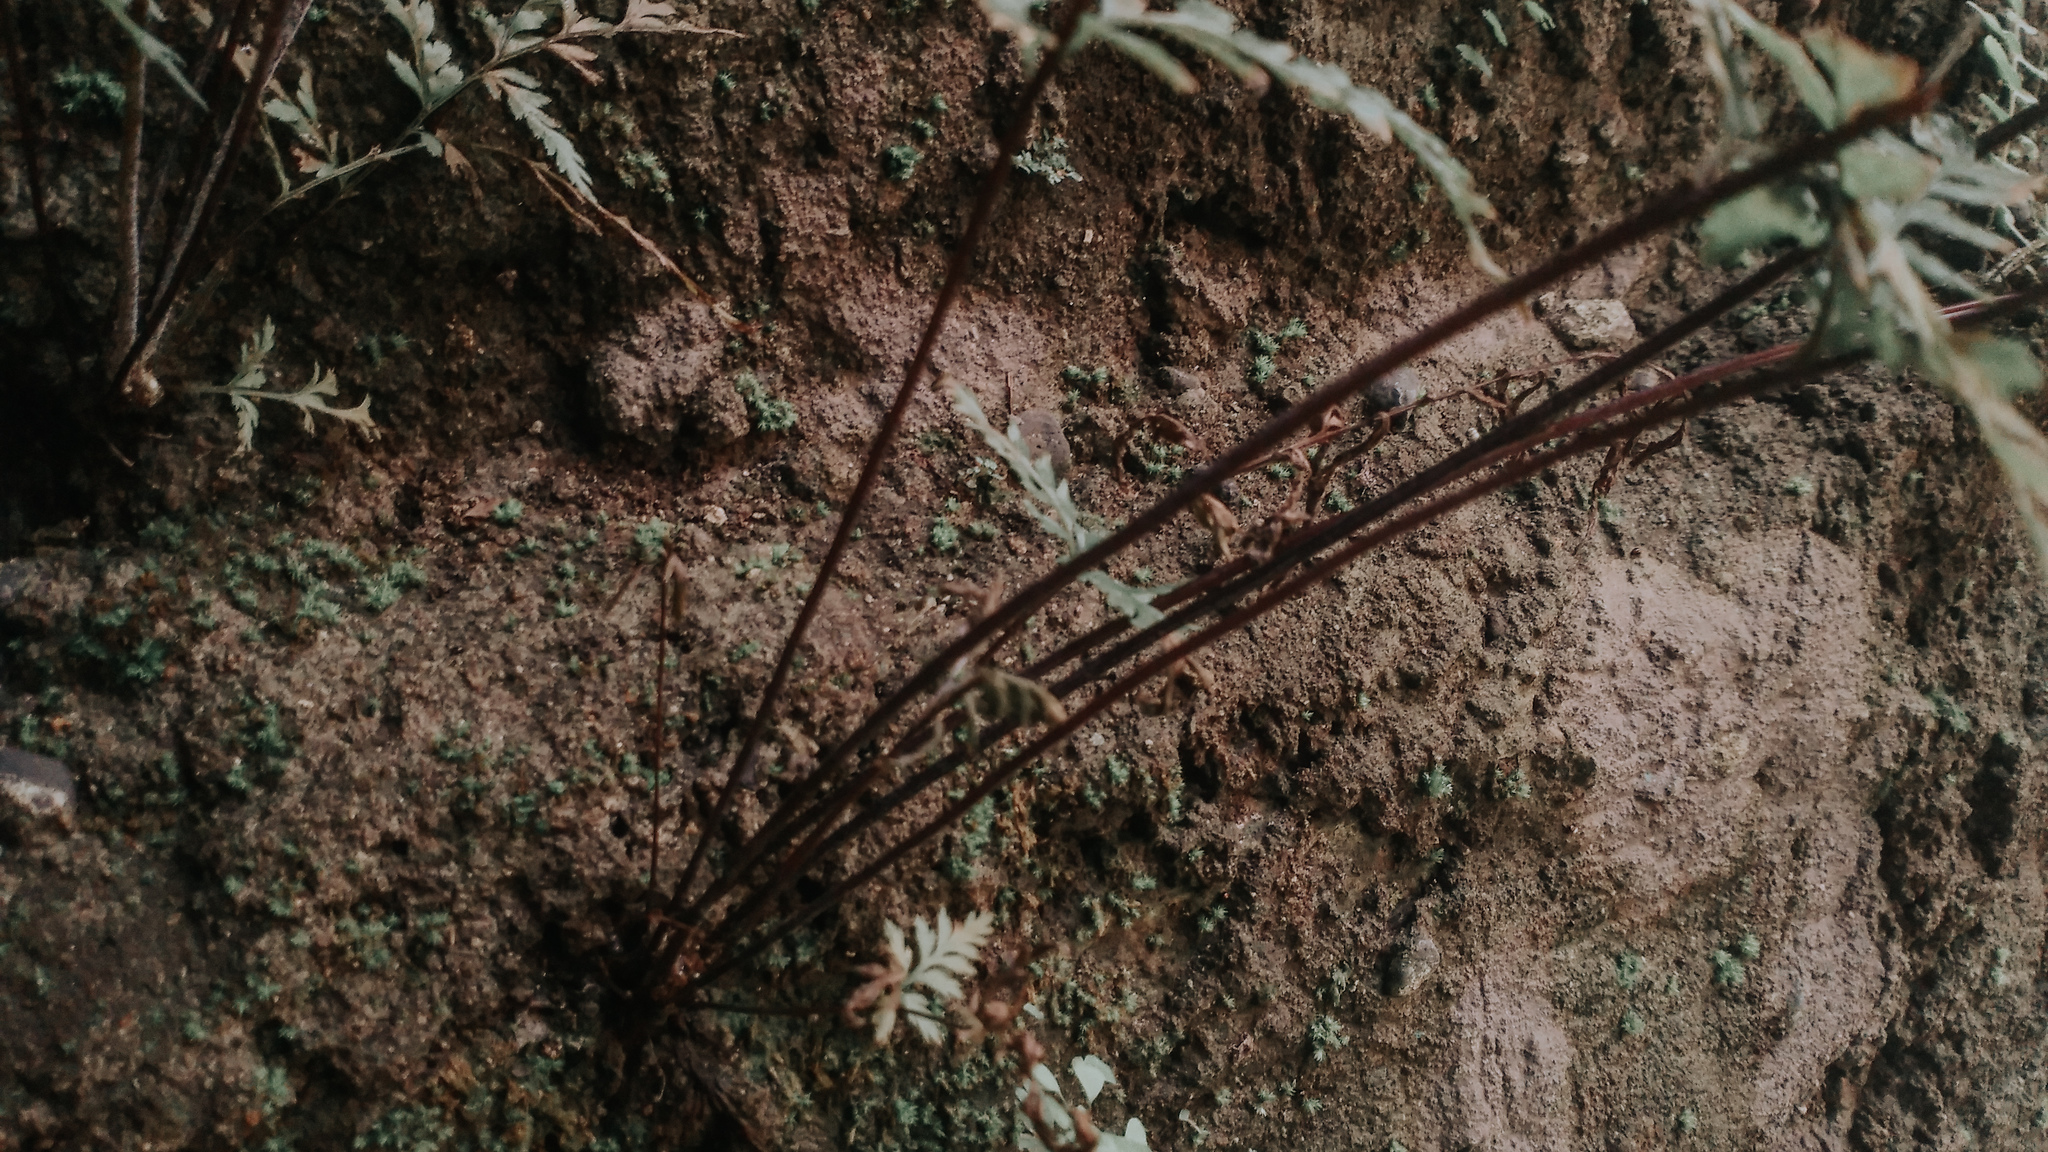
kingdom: Plantae
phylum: Tracheophyta
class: Polypodiopsida
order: Polypodiales
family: Pteridaceae
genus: Pityrogramma
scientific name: Pityrogramma calomelanos
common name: Dixie silverback fern
